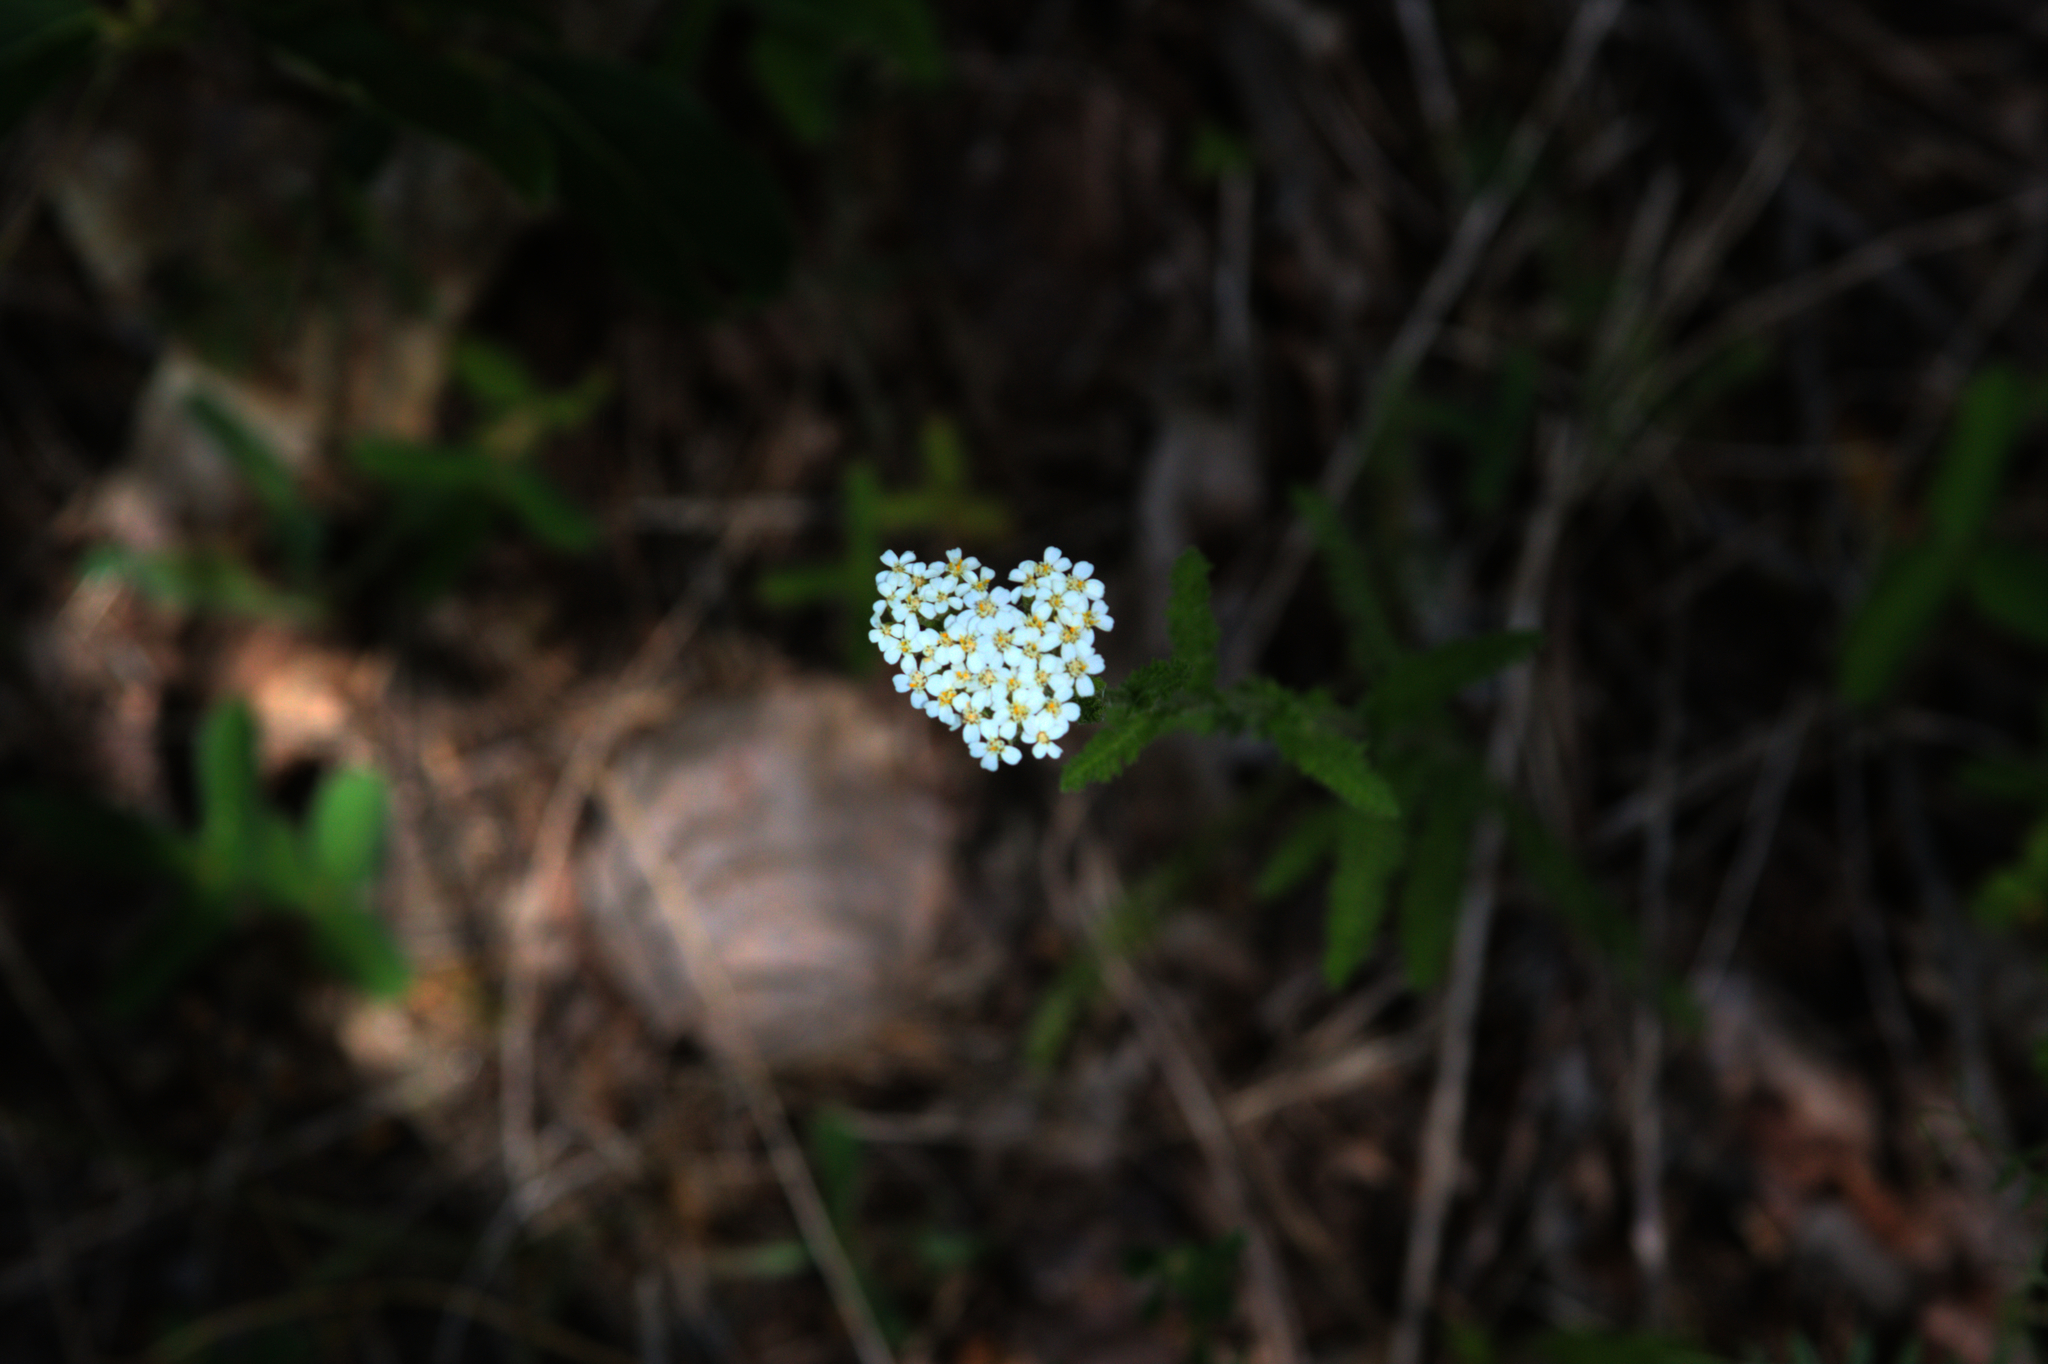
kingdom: Plantae
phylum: Tracheophyta
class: Magnoliopsida
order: Asterales
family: Asteraceae
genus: Achillea
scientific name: Achillea millefolium
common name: Yarrow
